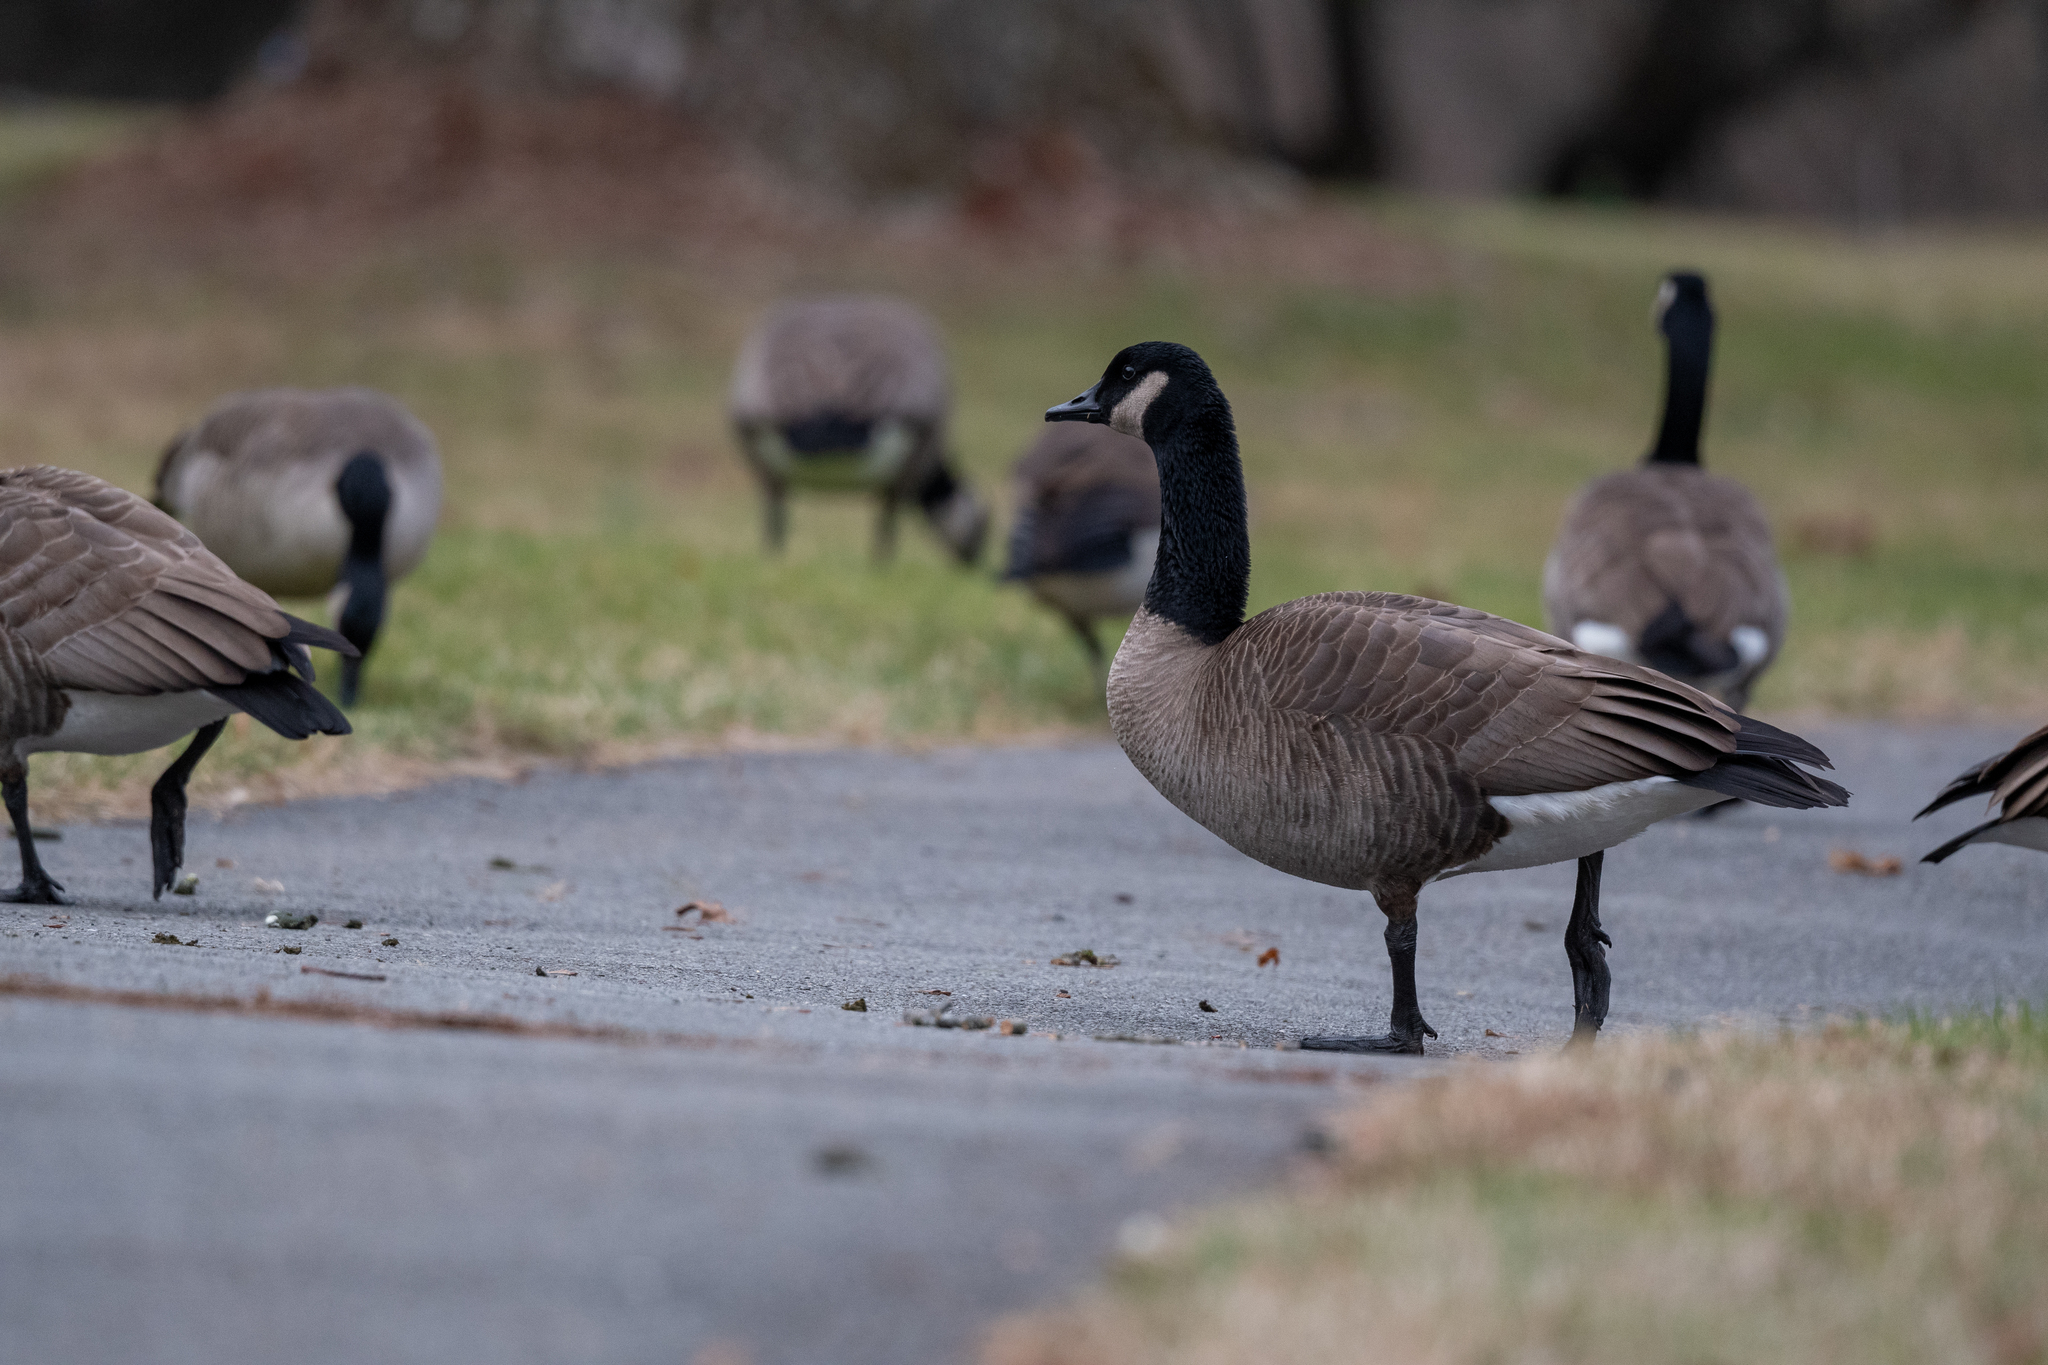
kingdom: Animalia
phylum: Chordata
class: Aves
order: Anseriformes
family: Anatidae
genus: Branta
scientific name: Branta canadensis
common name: Canada goose
